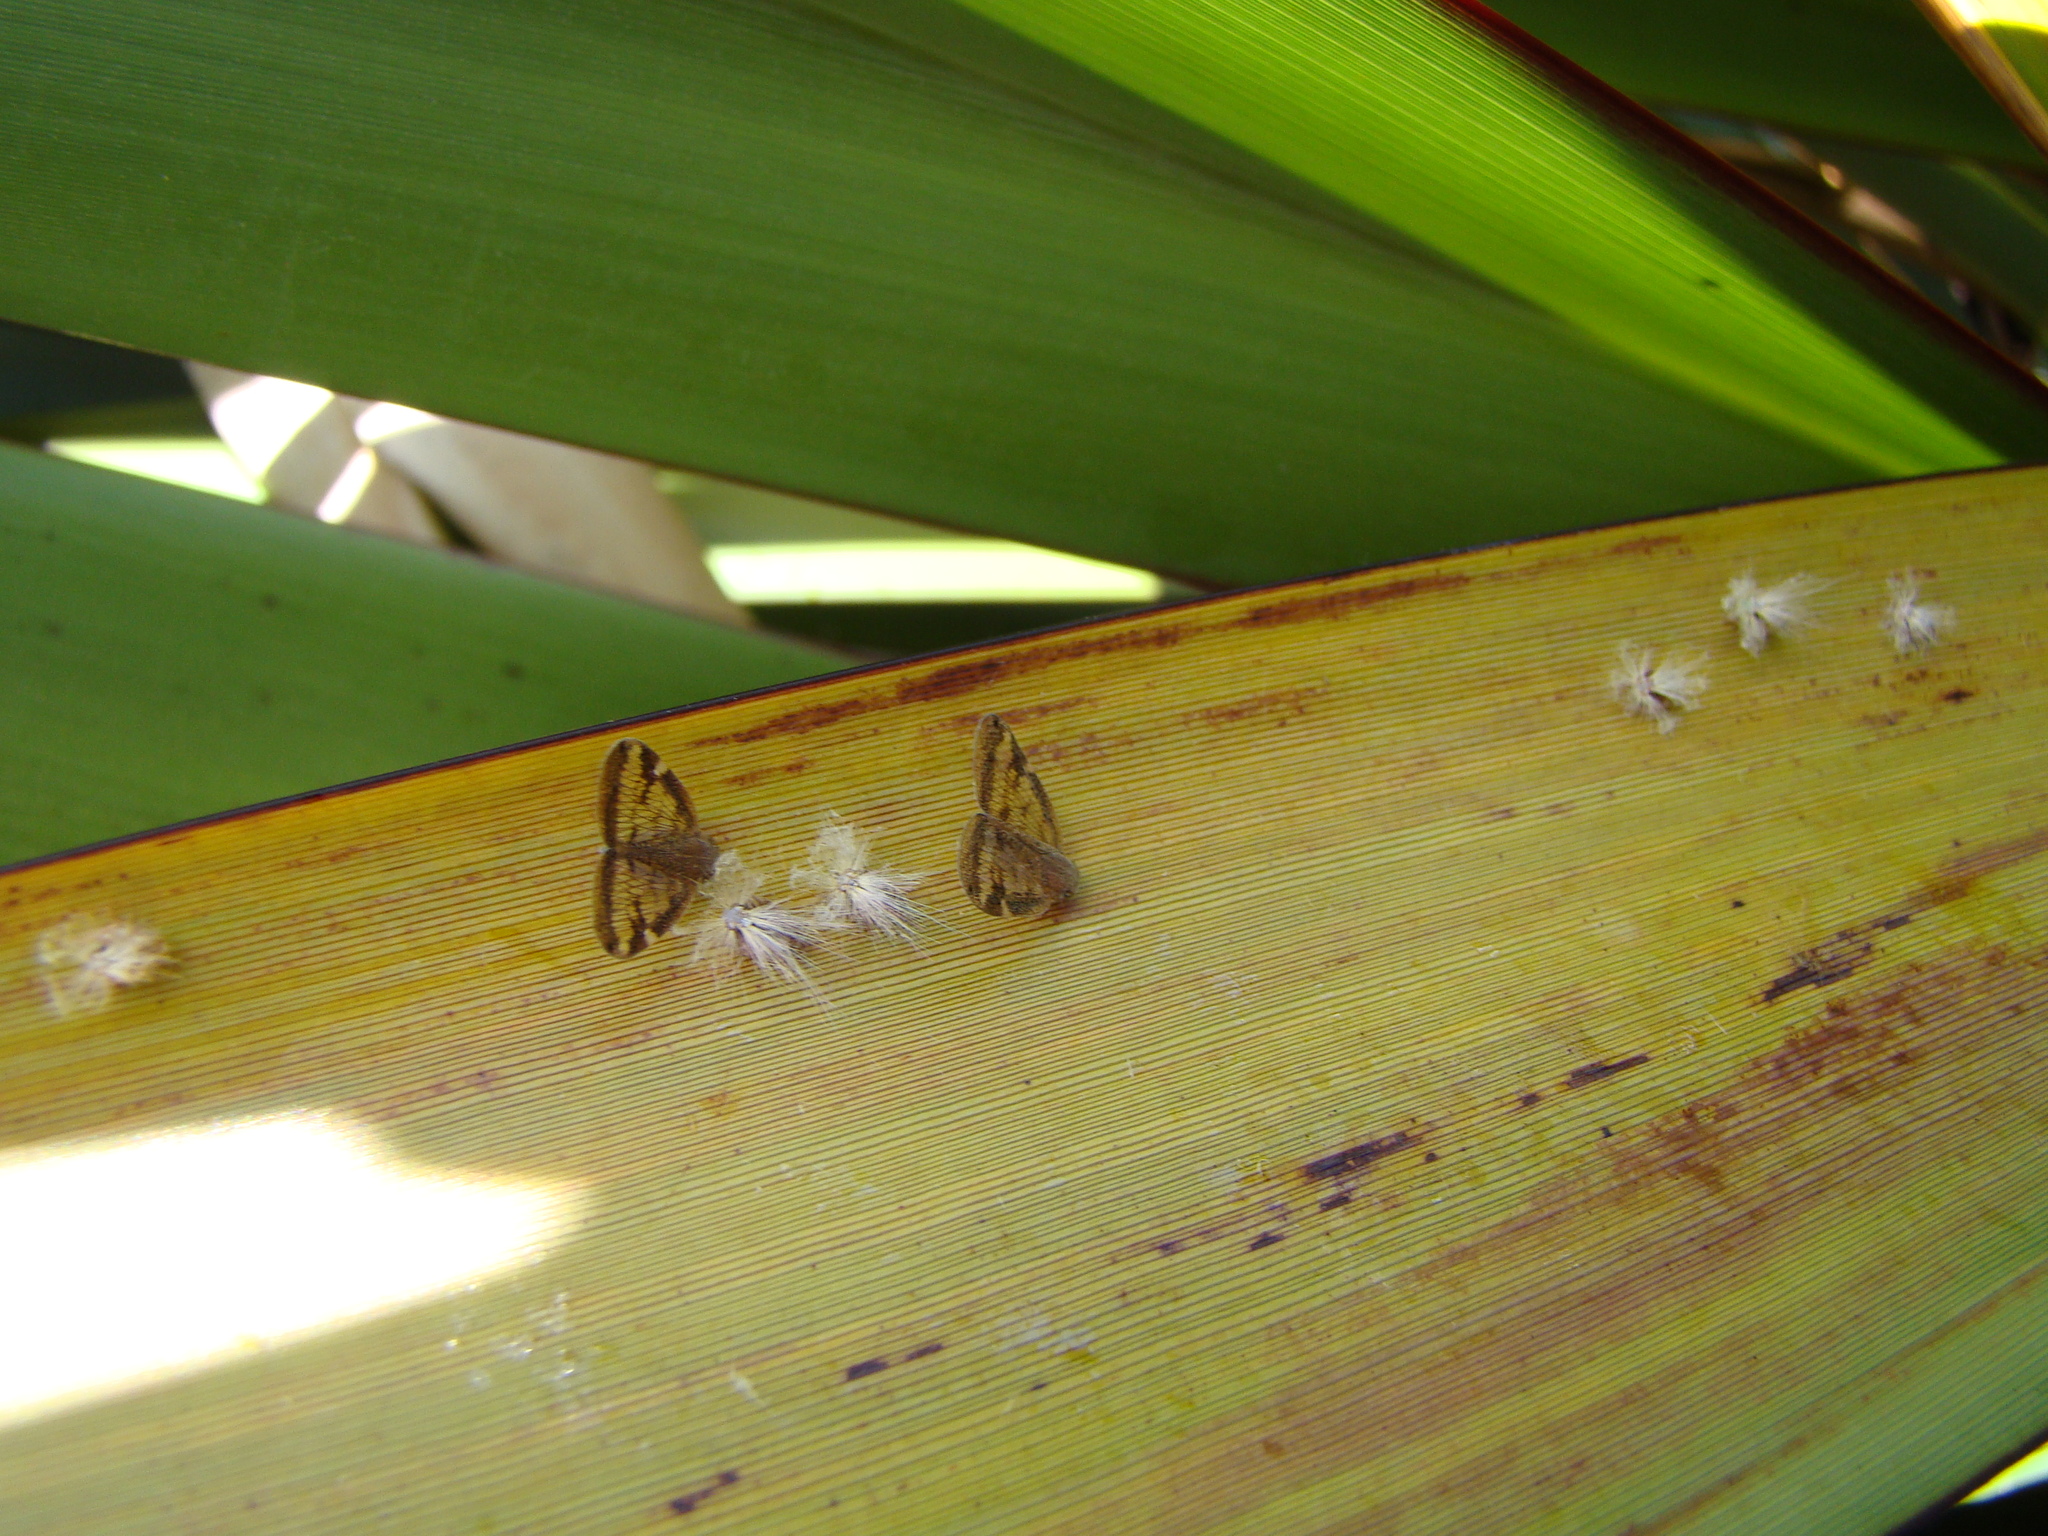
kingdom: Animalia
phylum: Arthropoda
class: Insecta
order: Hemiptera
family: Ricaniidae
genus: Scolypopa
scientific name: Scolypopa australis
